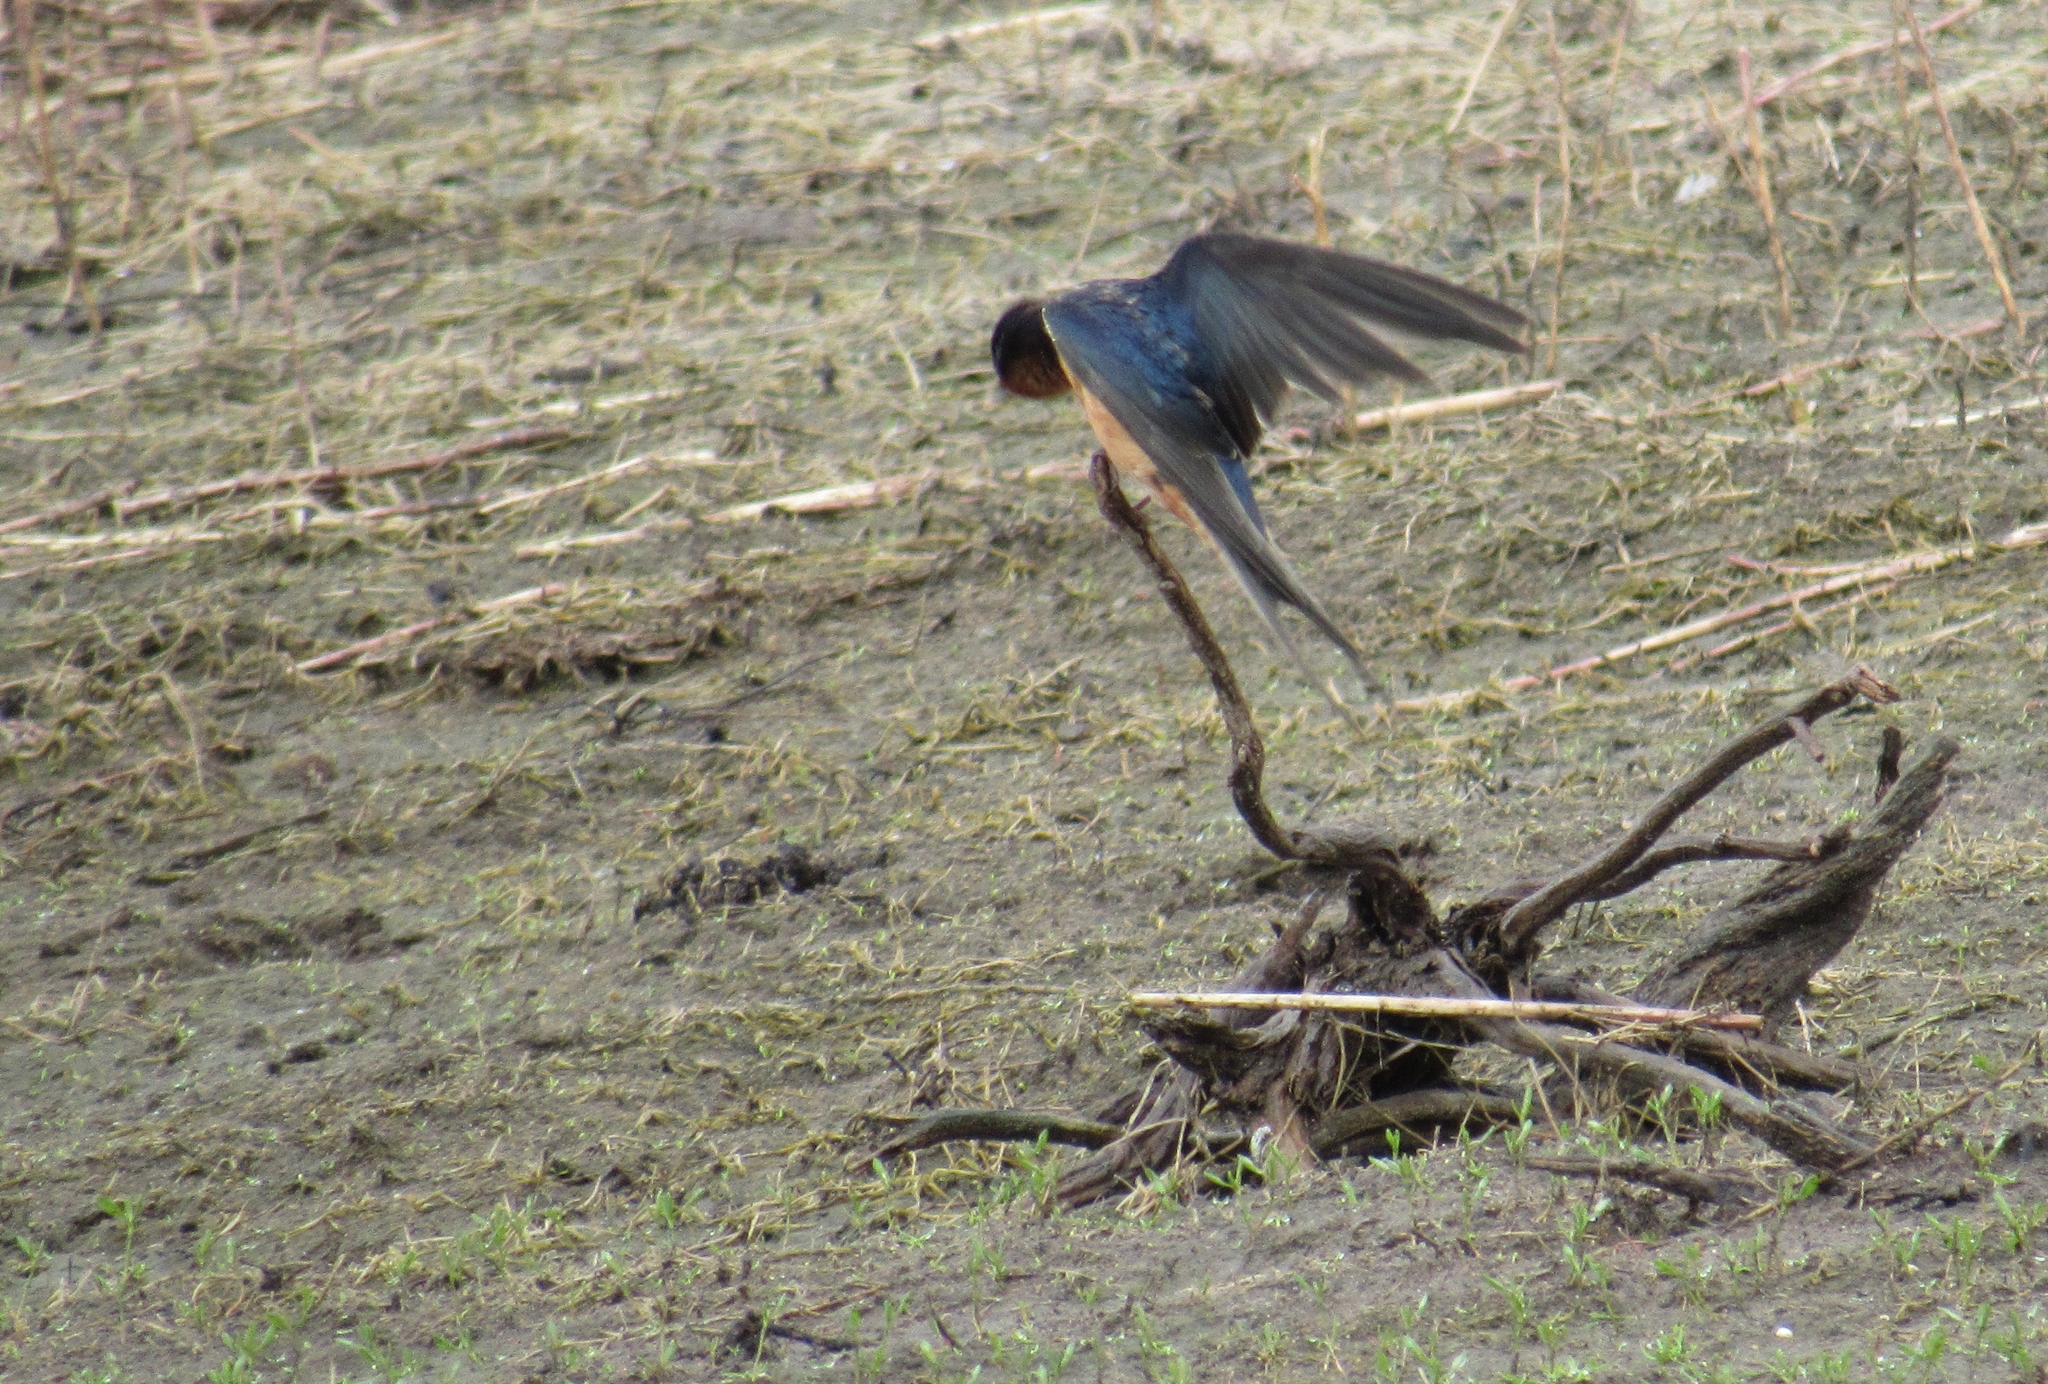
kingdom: Animalia
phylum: Chordata
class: Aves
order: Passeriformes
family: Hirundinidae
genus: Hirundo
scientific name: Hirundo rustica
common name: Barn swallow
